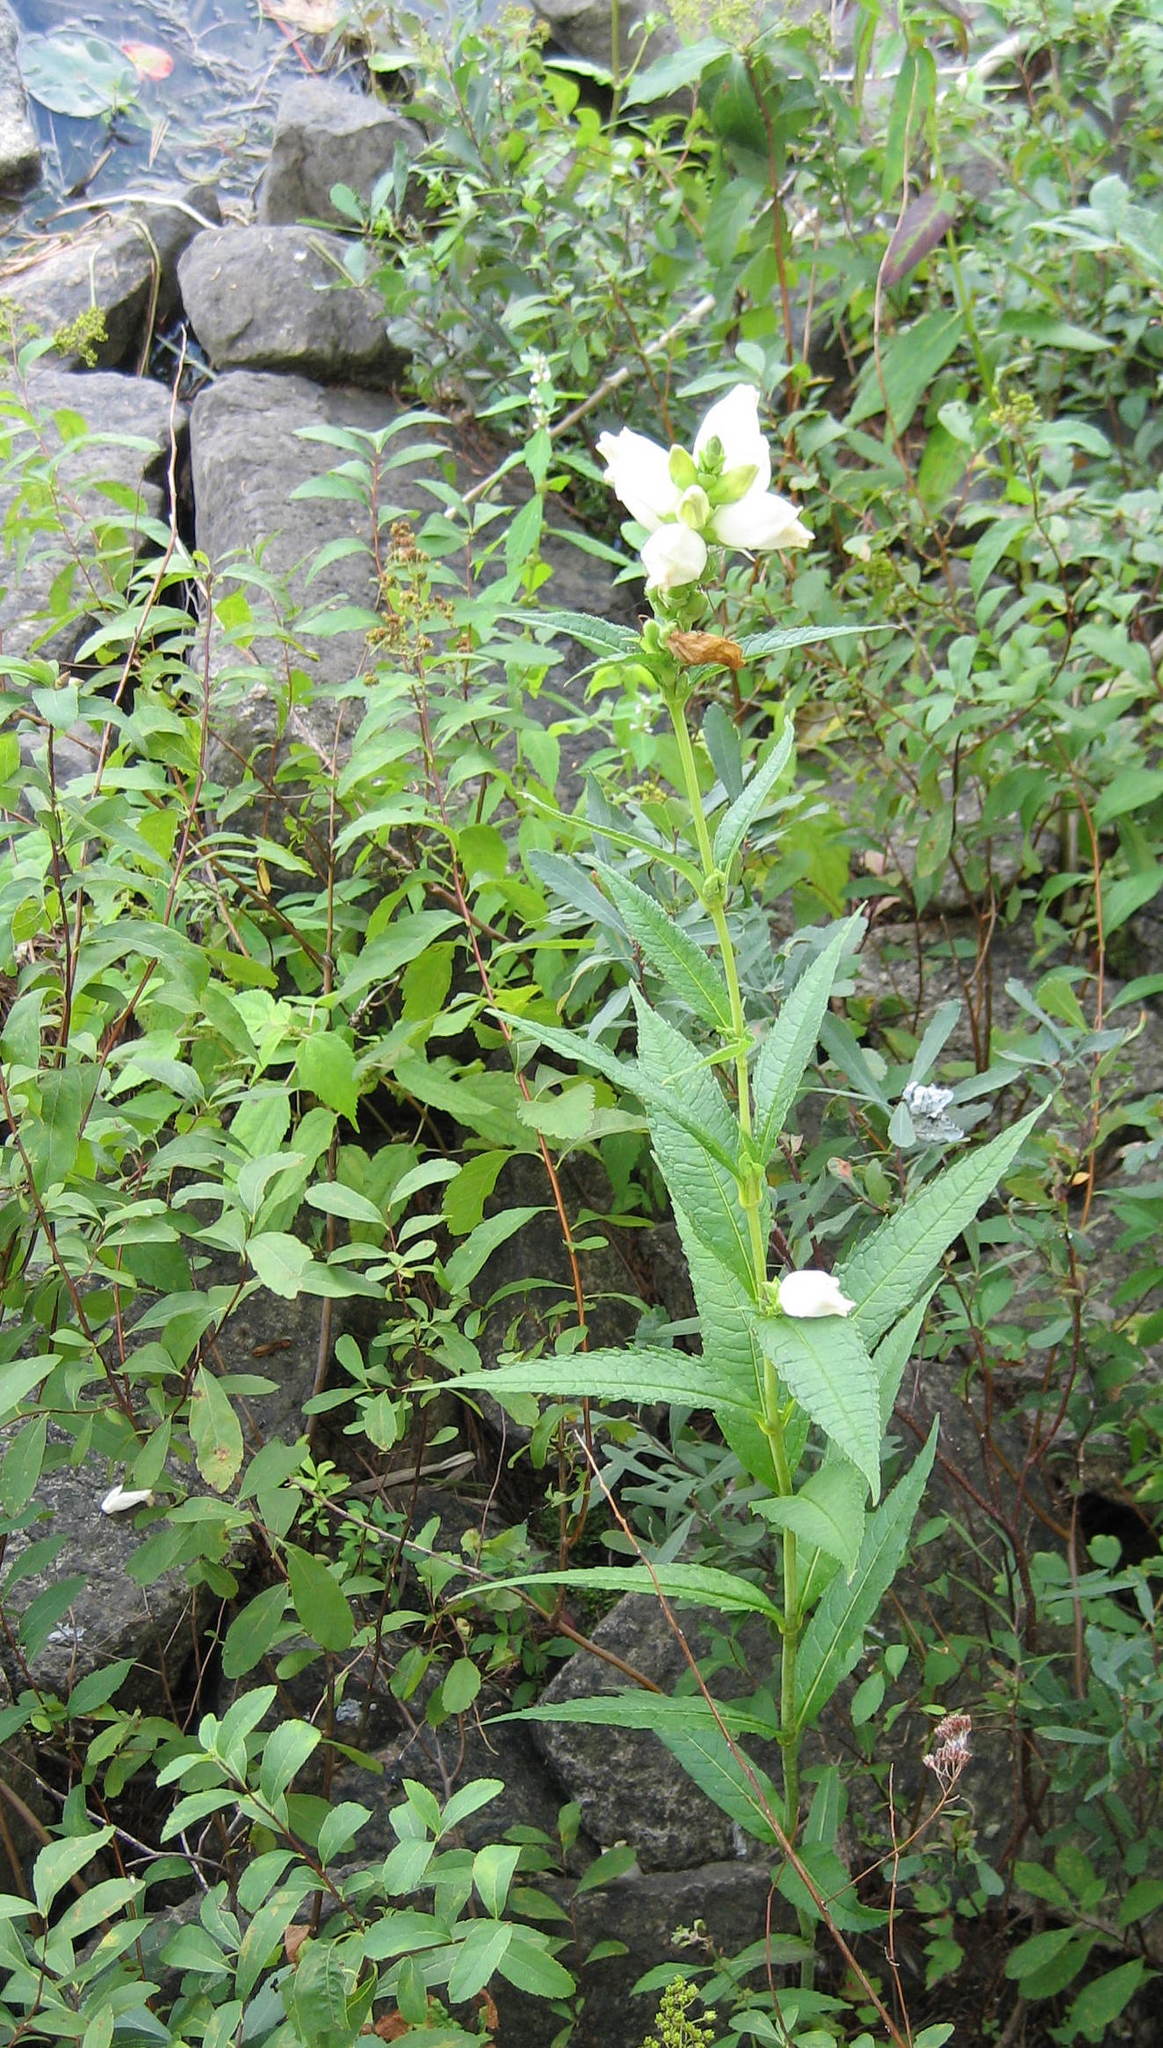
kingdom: Plantae
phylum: Tracheophyta
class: Magnoliopsida
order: Lamiales
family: Plantaginaceae
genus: Chelone
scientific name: Chelone glabra
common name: Snakehead
